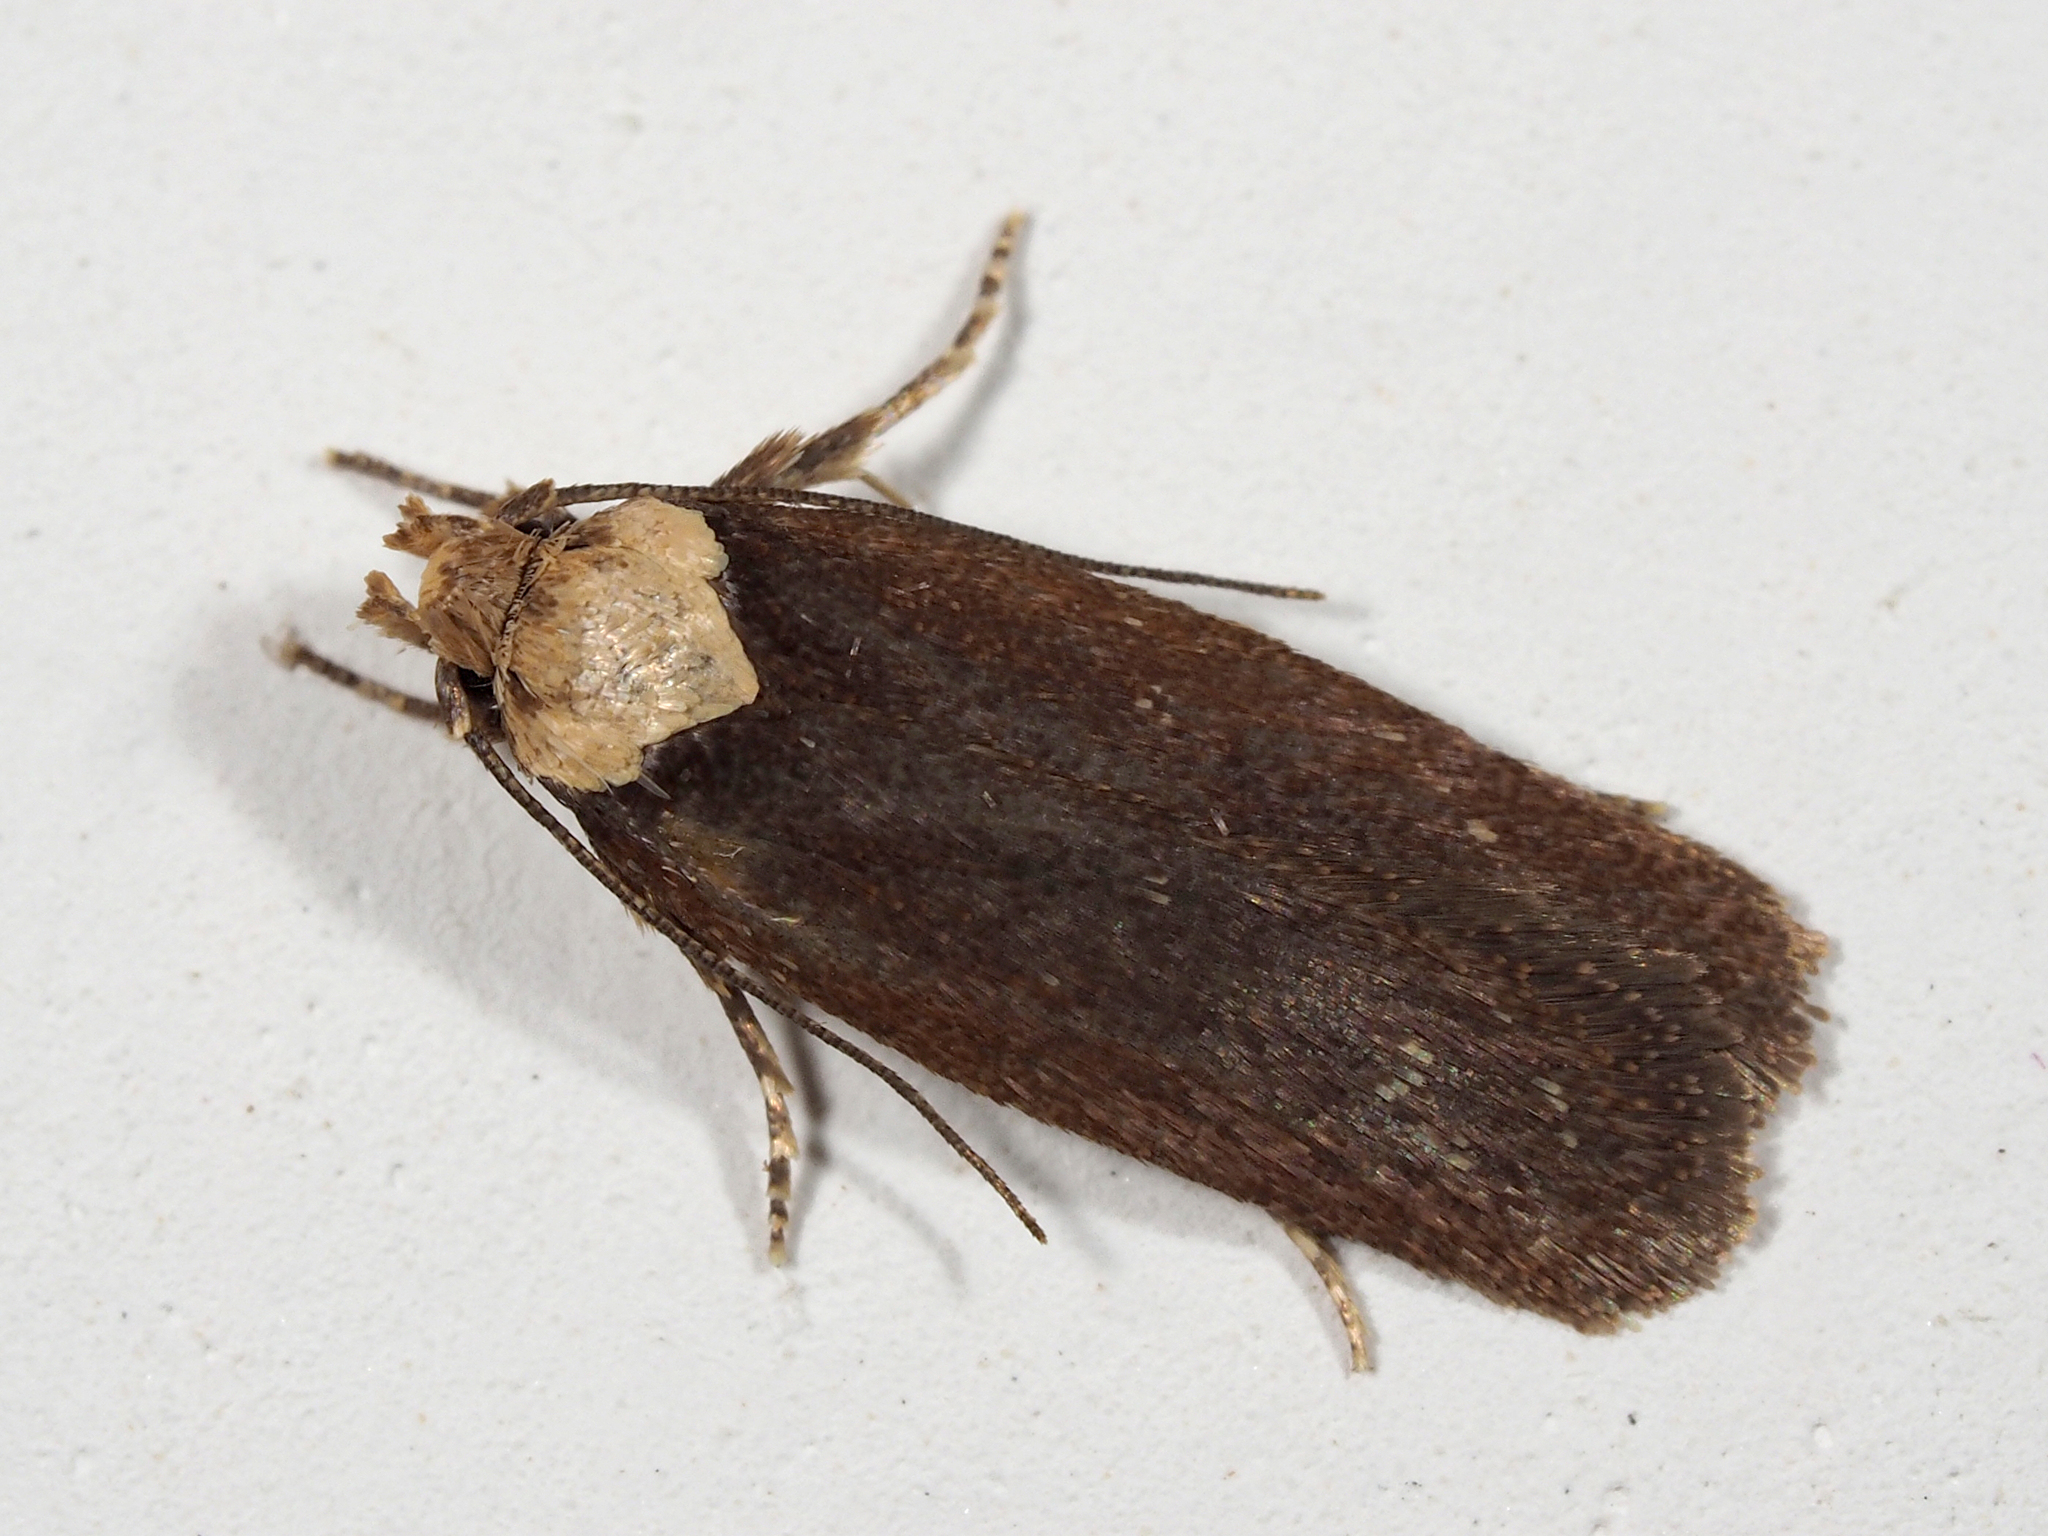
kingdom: Animalia
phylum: Arthropoda
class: Insecta
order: Lepidoptera
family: Depressariidae
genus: Depressaria
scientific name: Depressaria depressana
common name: Lost flat-body
